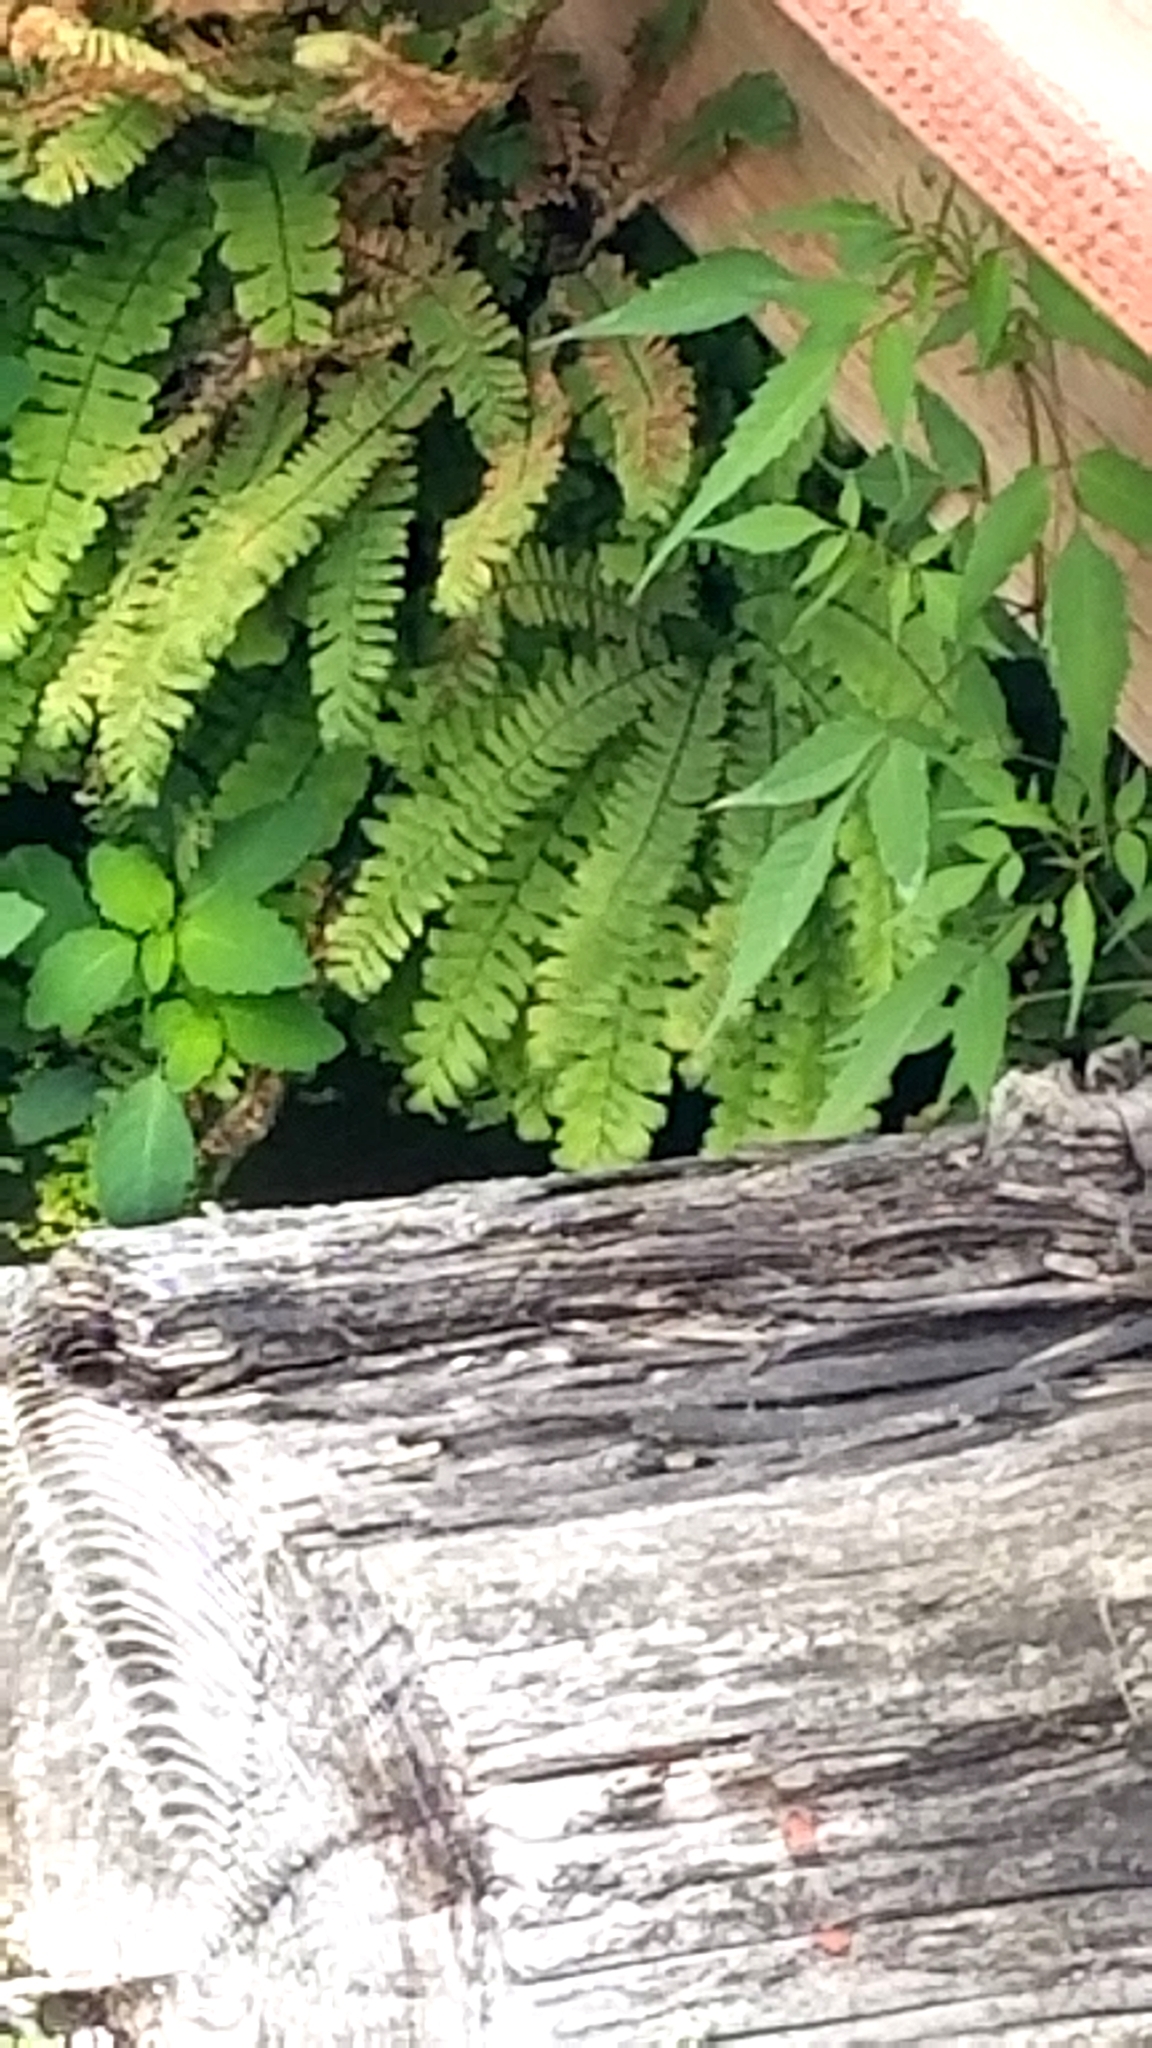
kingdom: Plantae
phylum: Tracheophyta
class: Polypodiopsida
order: Polypodiales
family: Pteridaceae
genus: Adiantum
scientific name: Adiantum aleuticum
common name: Aleutian maidenhair fern
